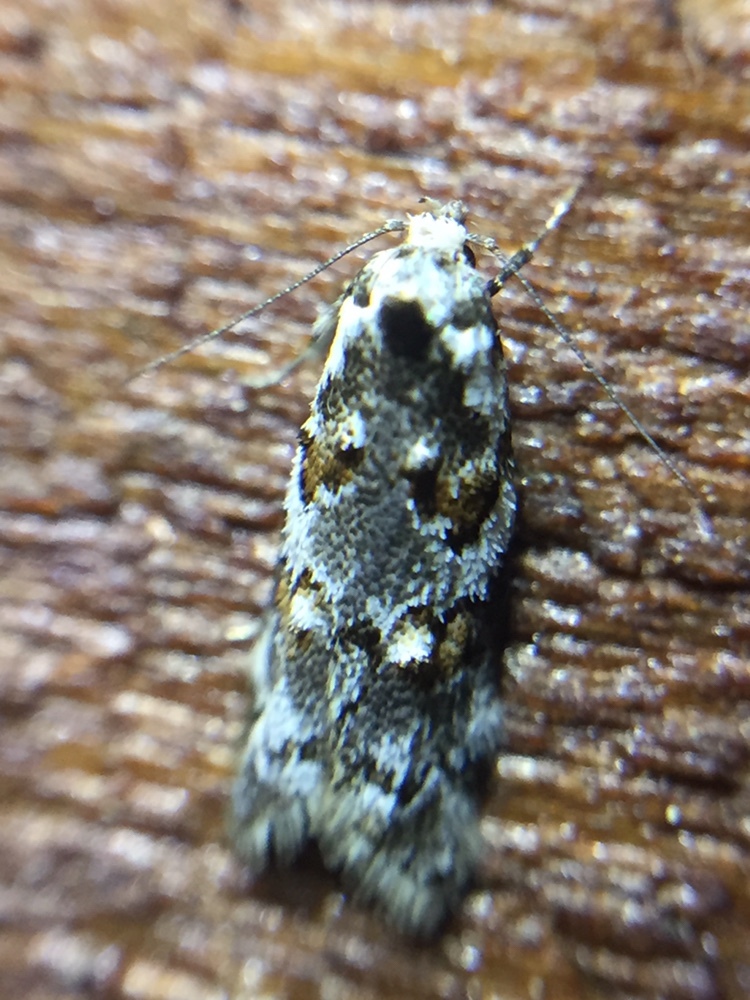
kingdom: Animalia
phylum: Arthropoda
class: Insecta
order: Lepidoptera
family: Oecophoridae
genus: Trachypepla
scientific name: Trachypepla galaxias
